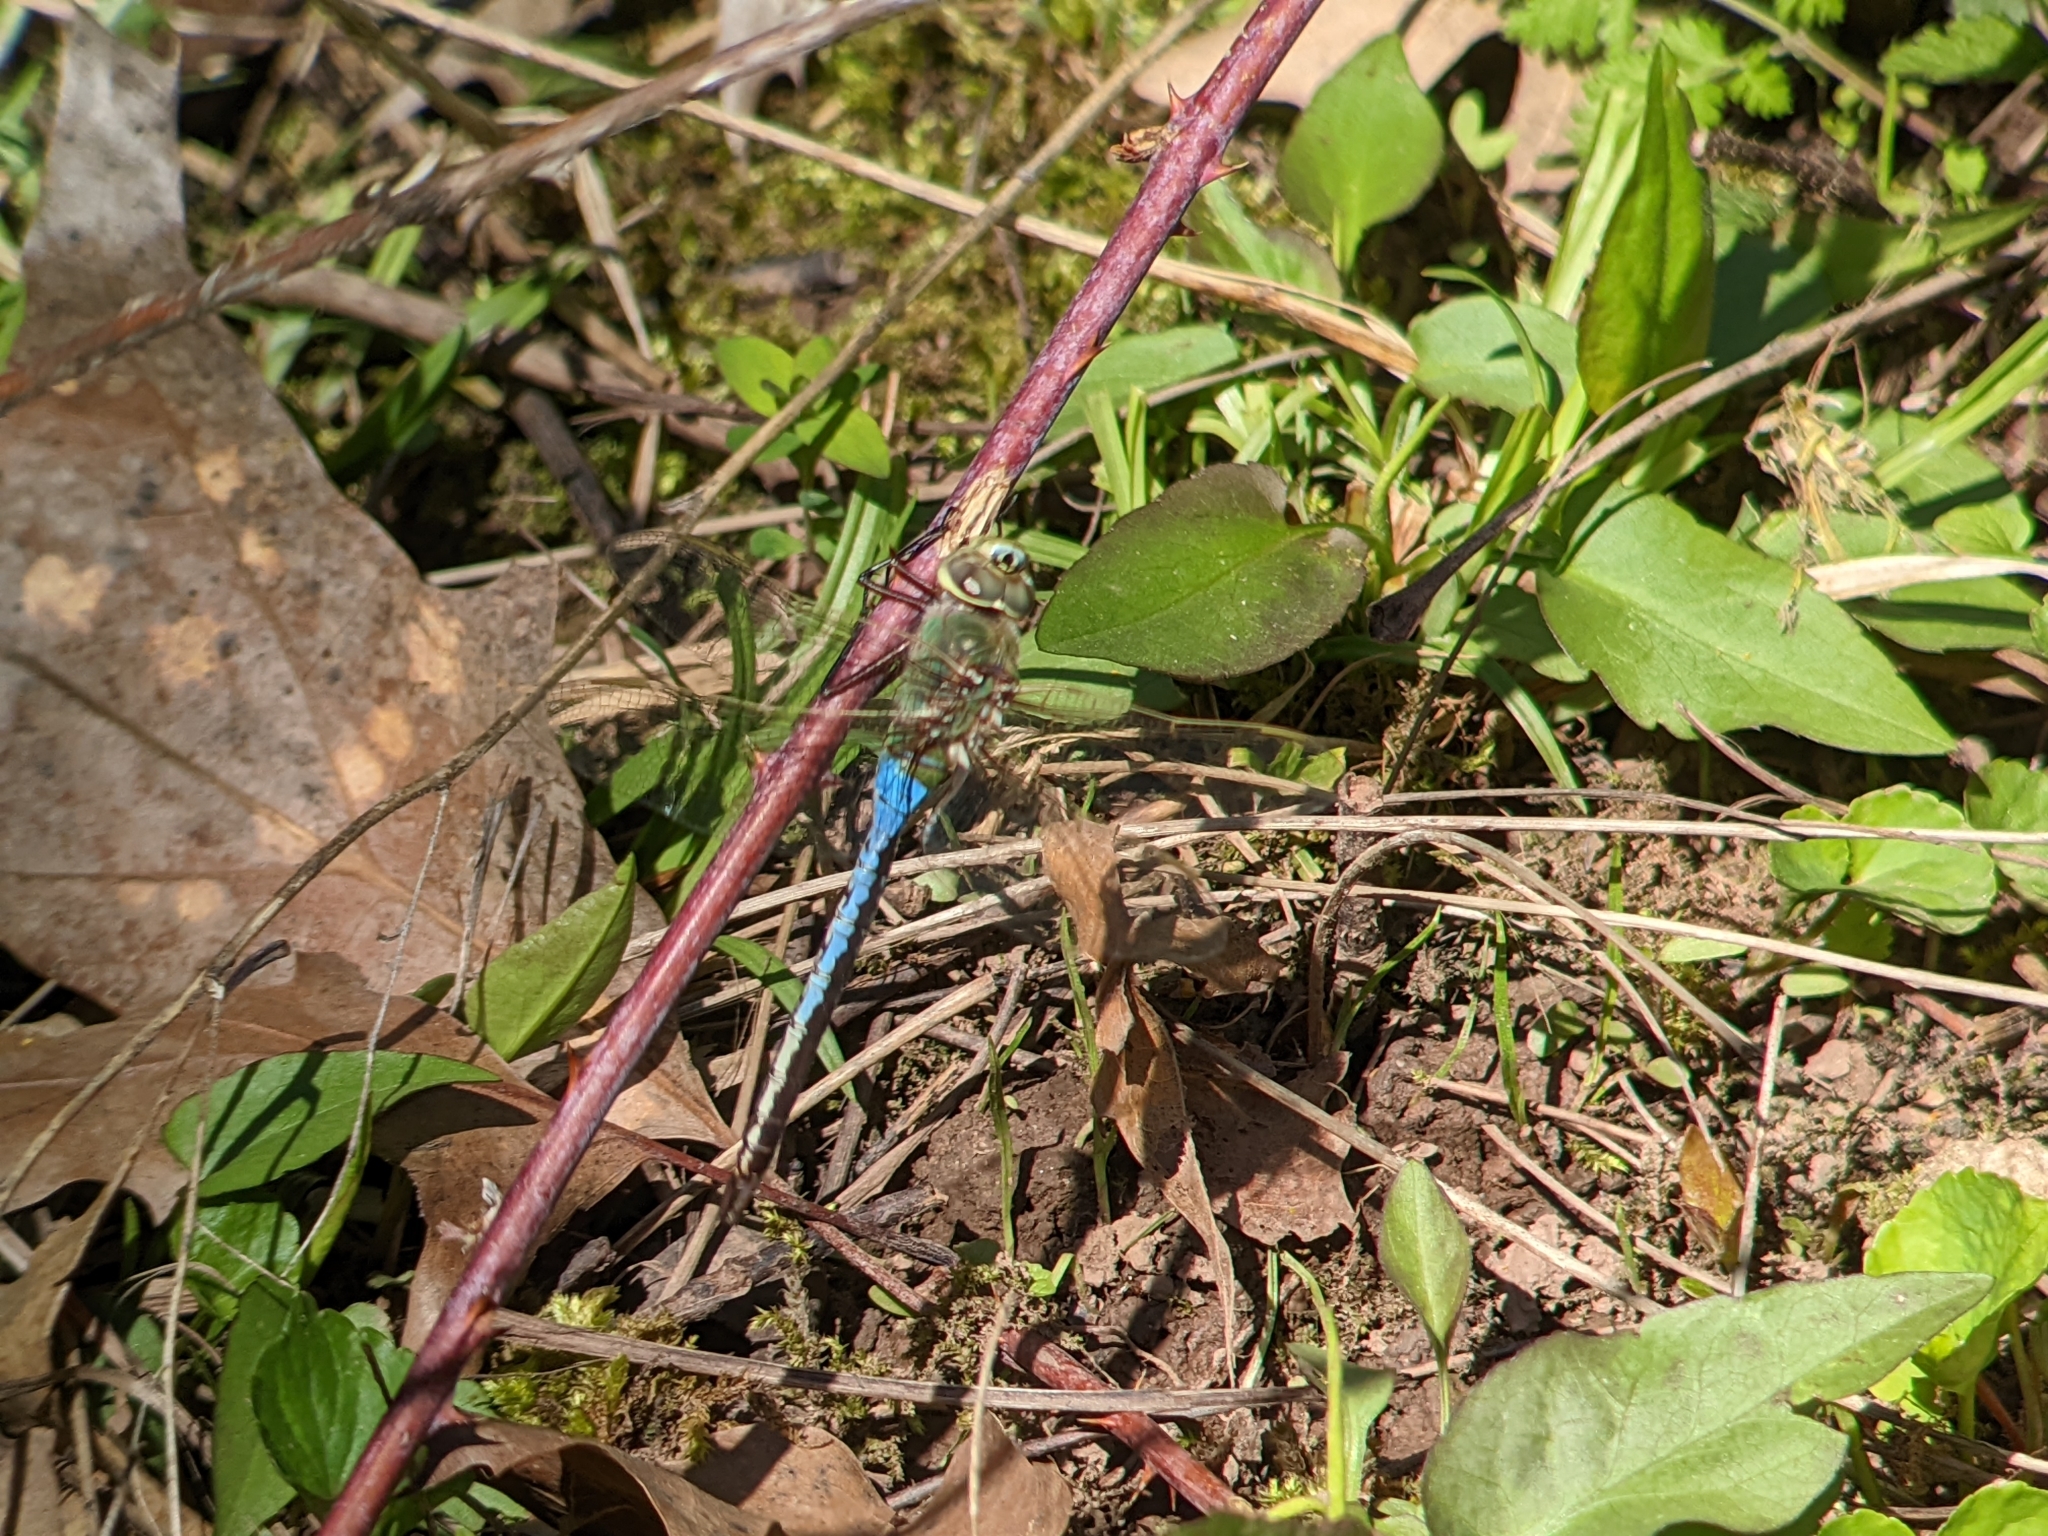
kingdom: Animalia
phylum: Arthropoda
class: Insecta
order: Odonata
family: Aeshnidae
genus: Anax
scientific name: Anax junius
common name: Common green darner
